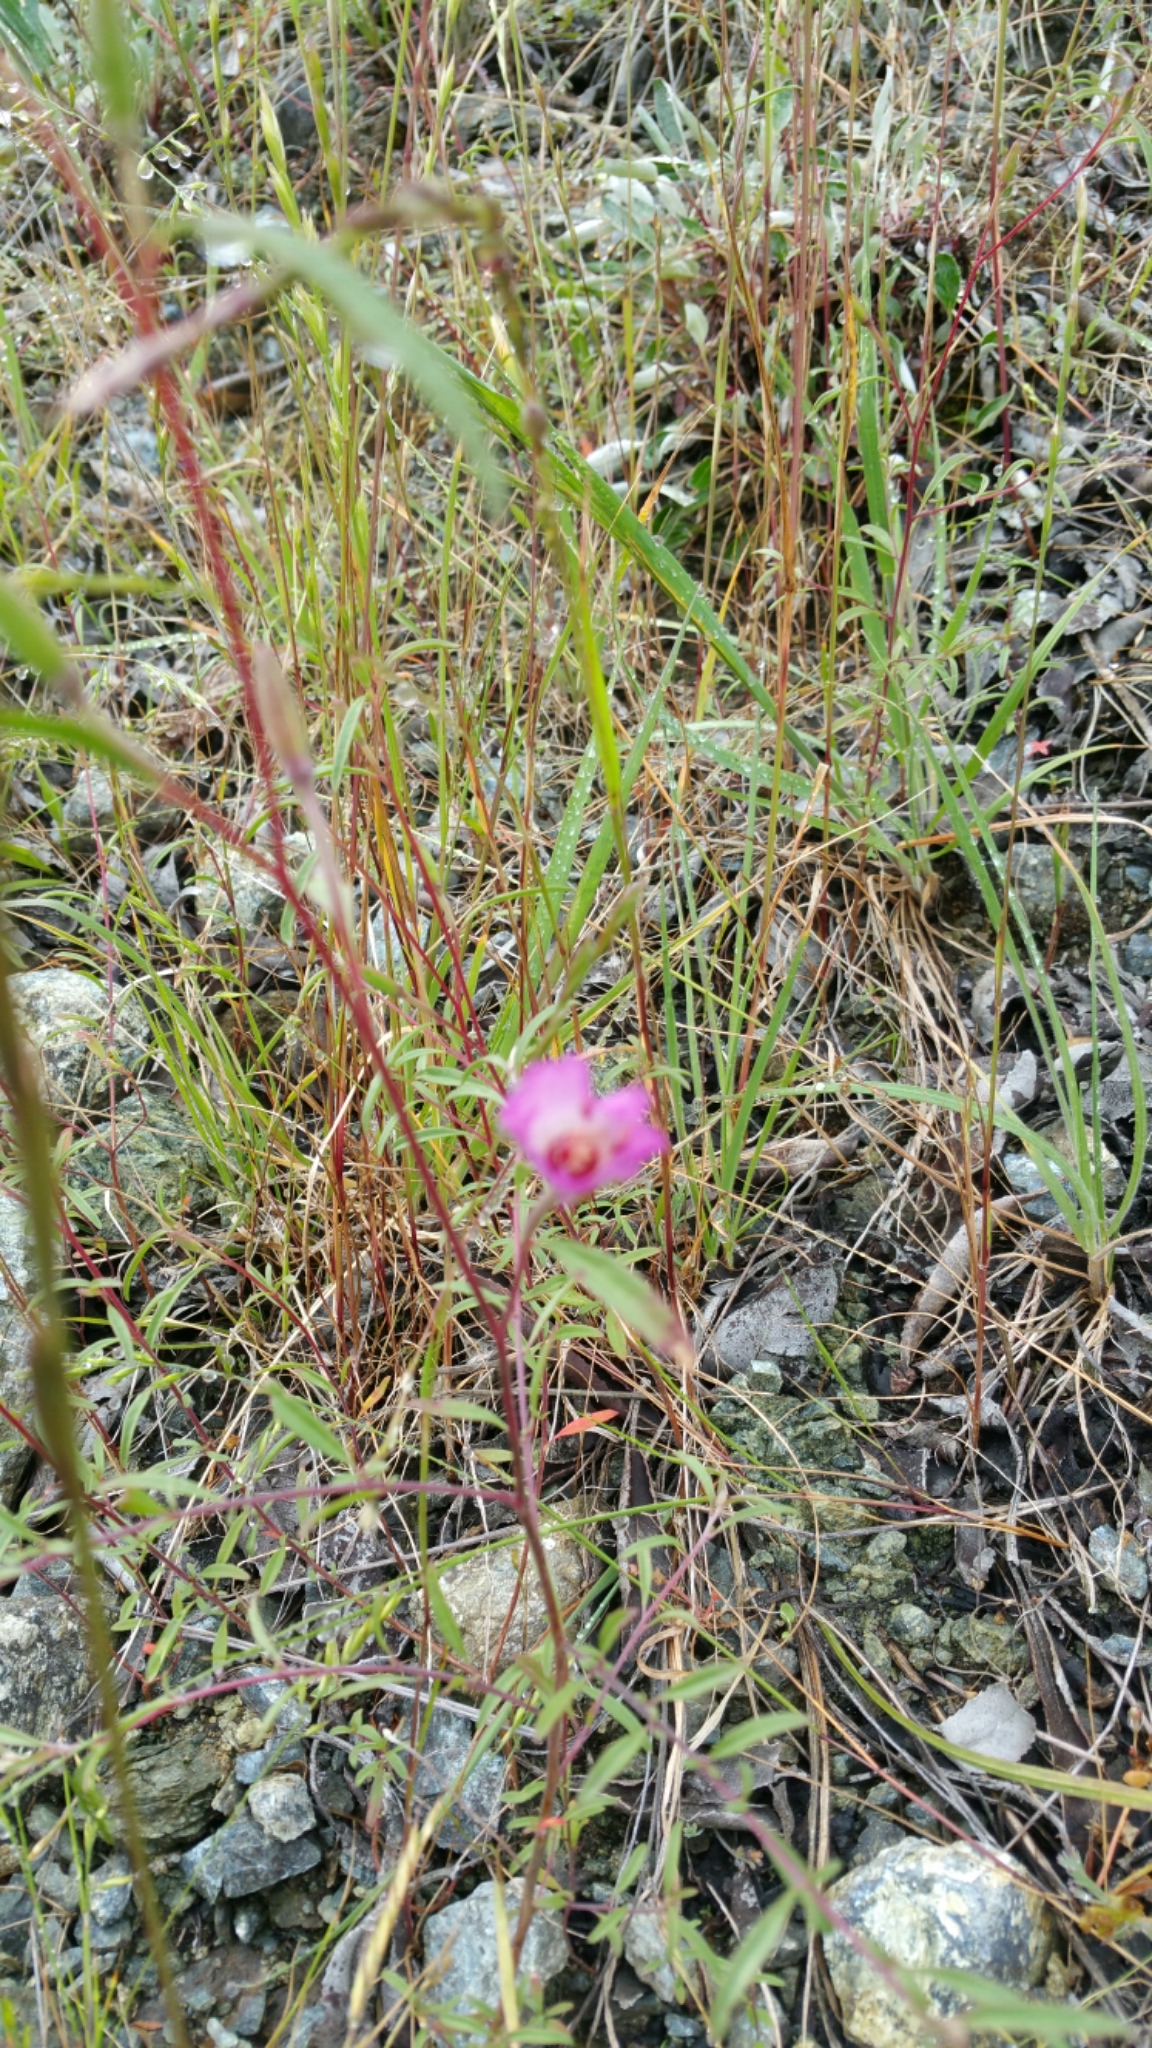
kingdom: Plantae
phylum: Tracheophyta
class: Magnoliopsida
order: Myrtales
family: Onagraceae
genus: Clarkia
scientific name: Clarkia franciscana
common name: Presidio clarkia
